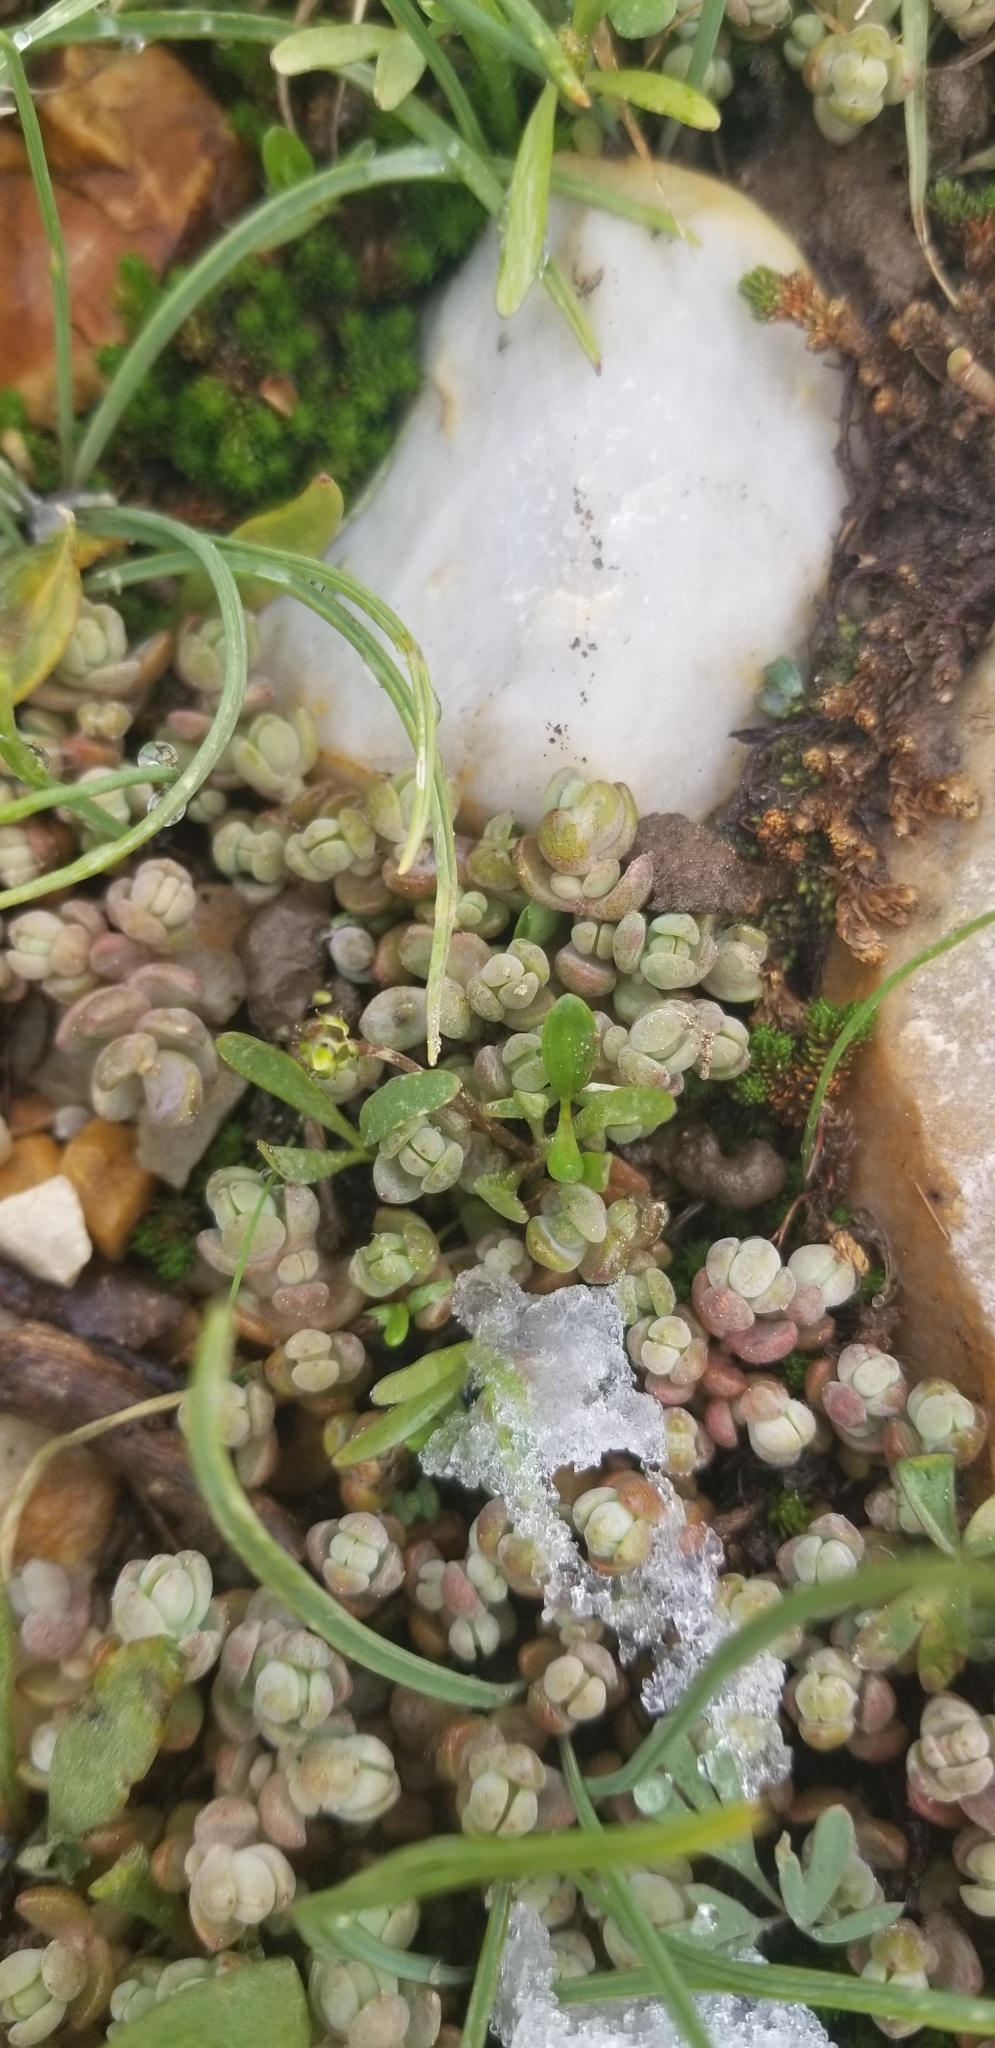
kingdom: Plantae
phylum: Tracheophyta
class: Magnoliopsida
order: Saxifragales
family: Crassulaceae
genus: Sedum
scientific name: Sedum debile
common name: Weak-stem stonecrop
